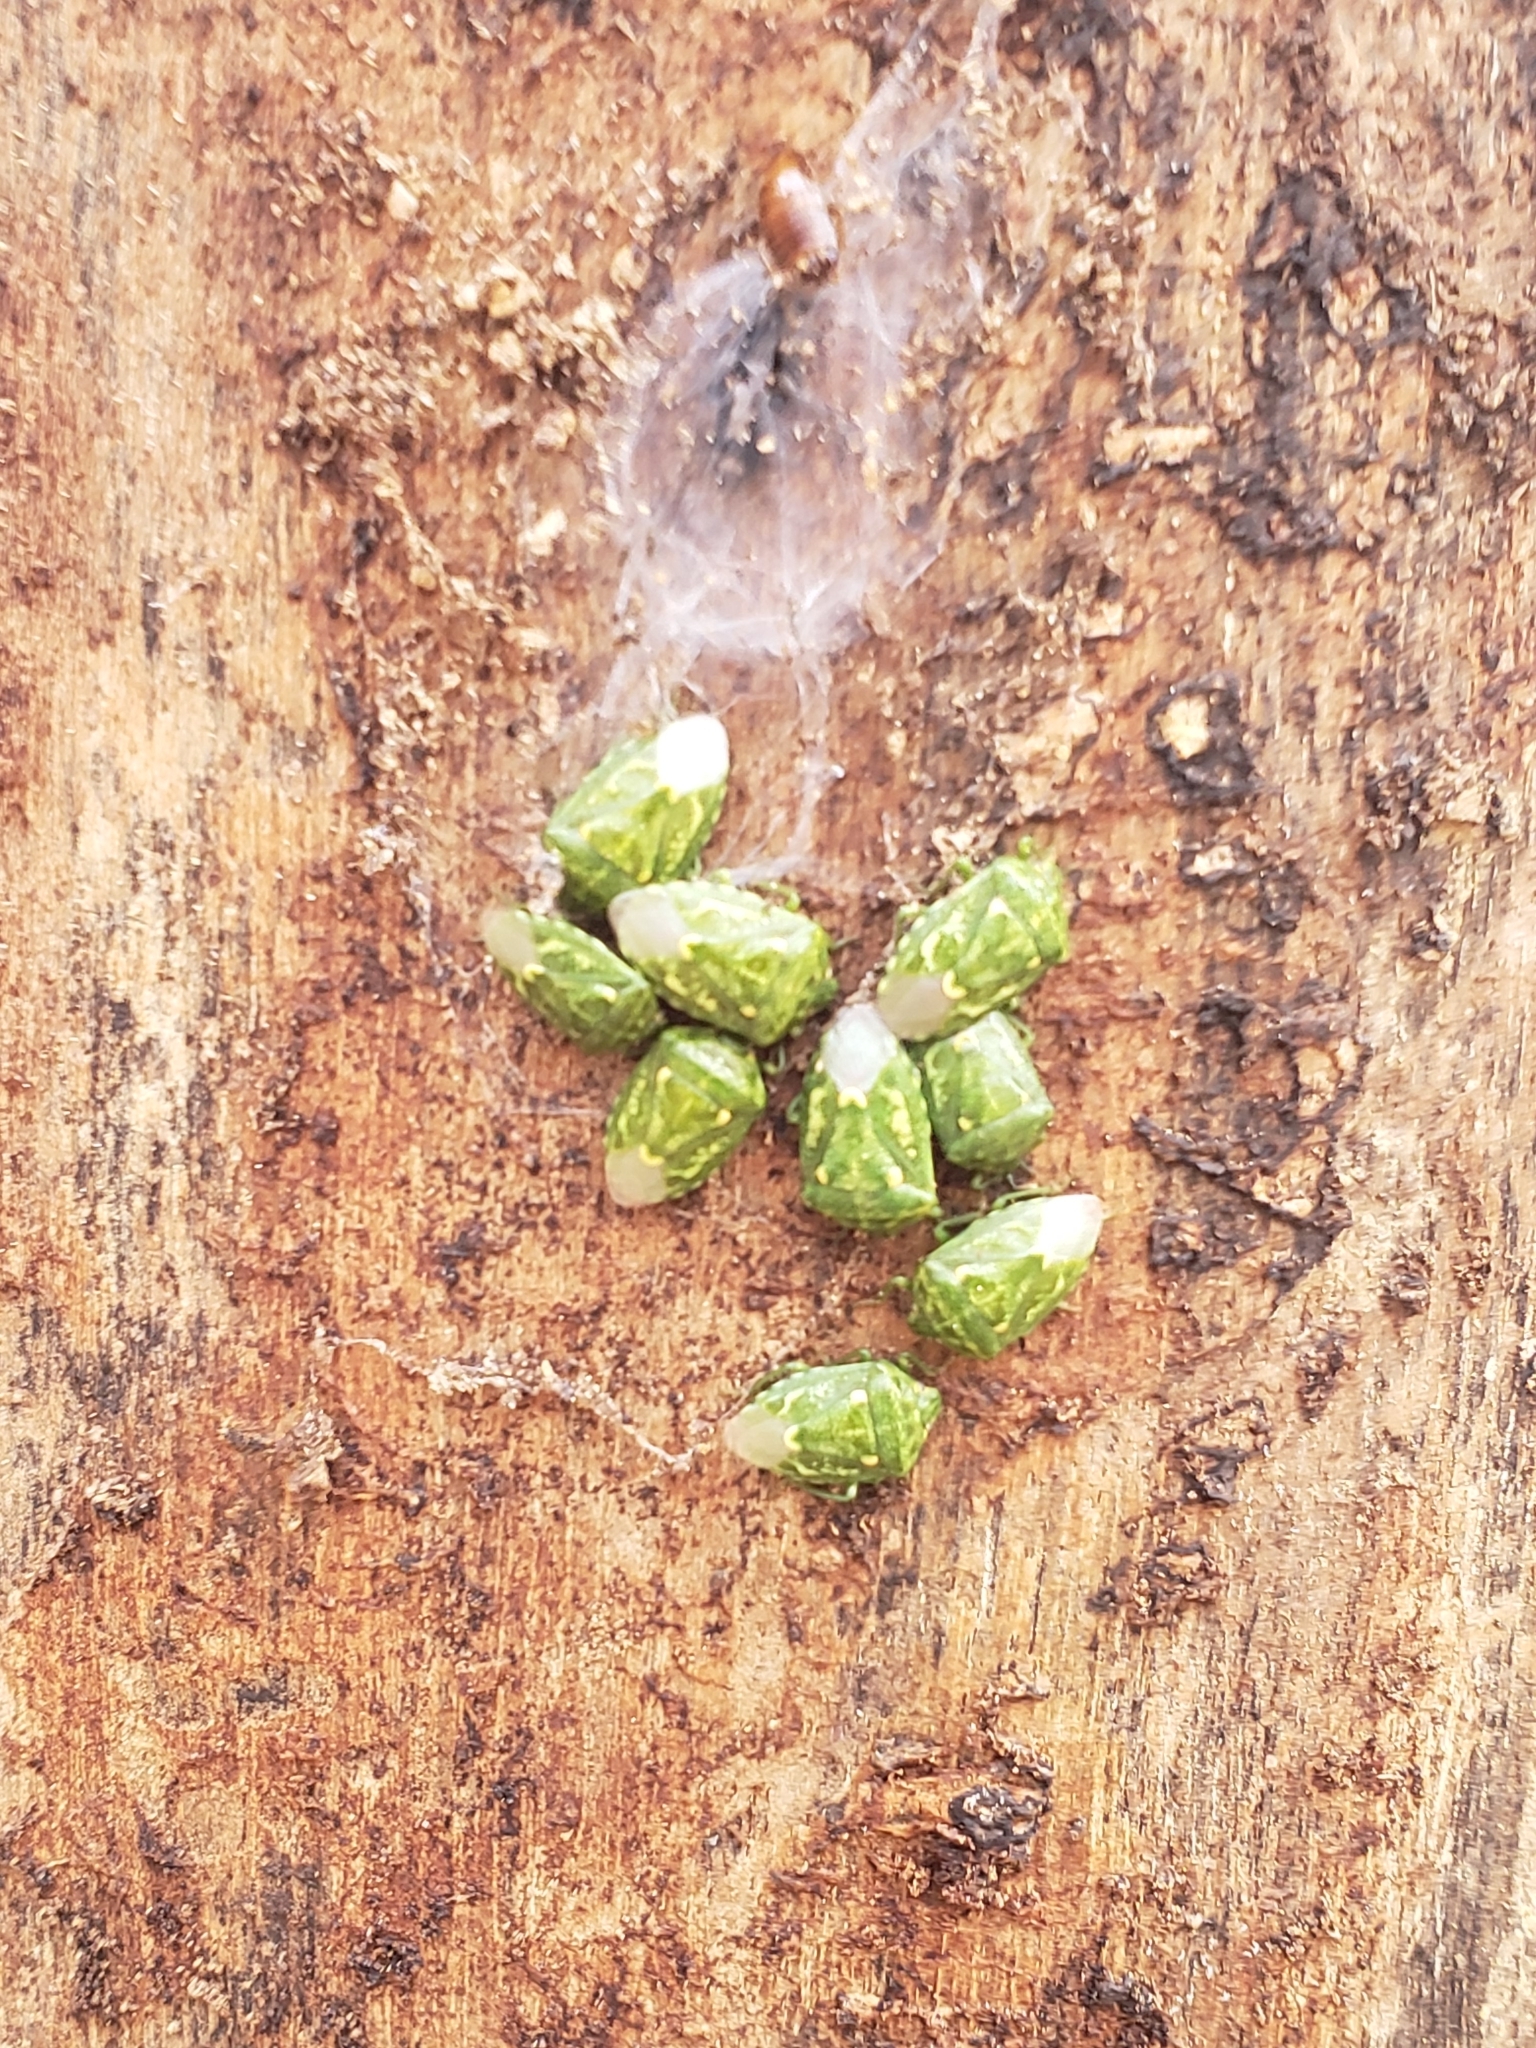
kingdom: Animalia
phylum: Arthropoda
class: Insecta
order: Hemiptera
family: Pentatomidae
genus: Banasa
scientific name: Banasa euchlora
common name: Cedar berry bug
